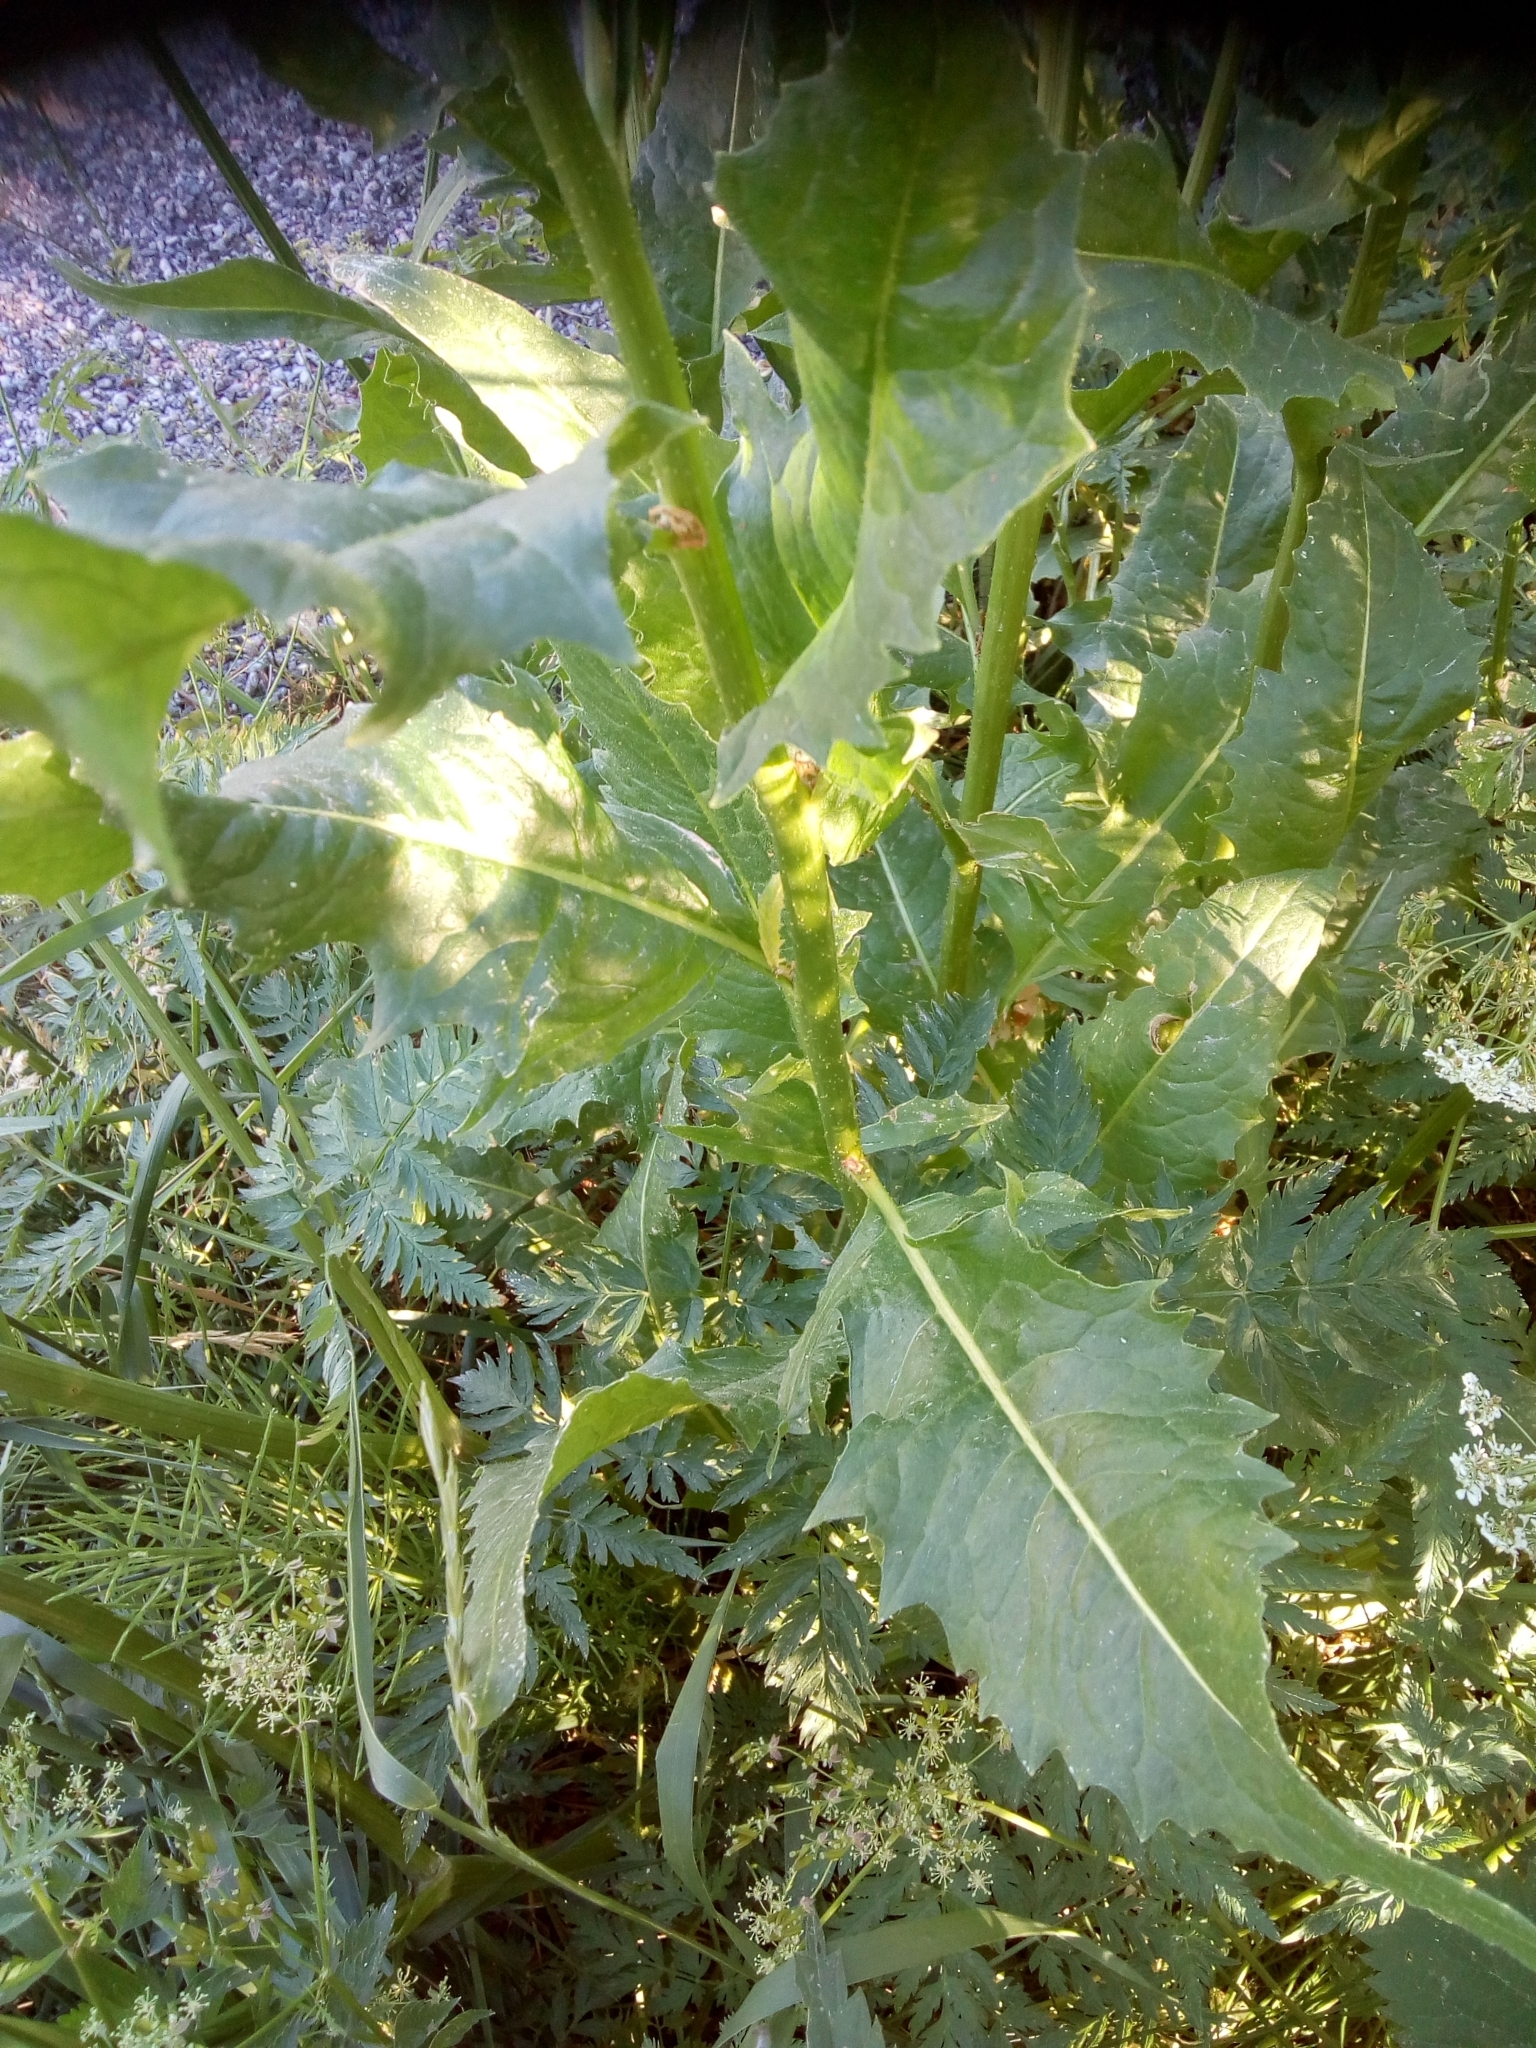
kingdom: Plantae
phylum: Tracheophyta
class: Magnoliopsida
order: Brassicales
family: Brassicaceae
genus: Bunias
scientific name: Bunias orientalis
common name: Warty-cabbage
